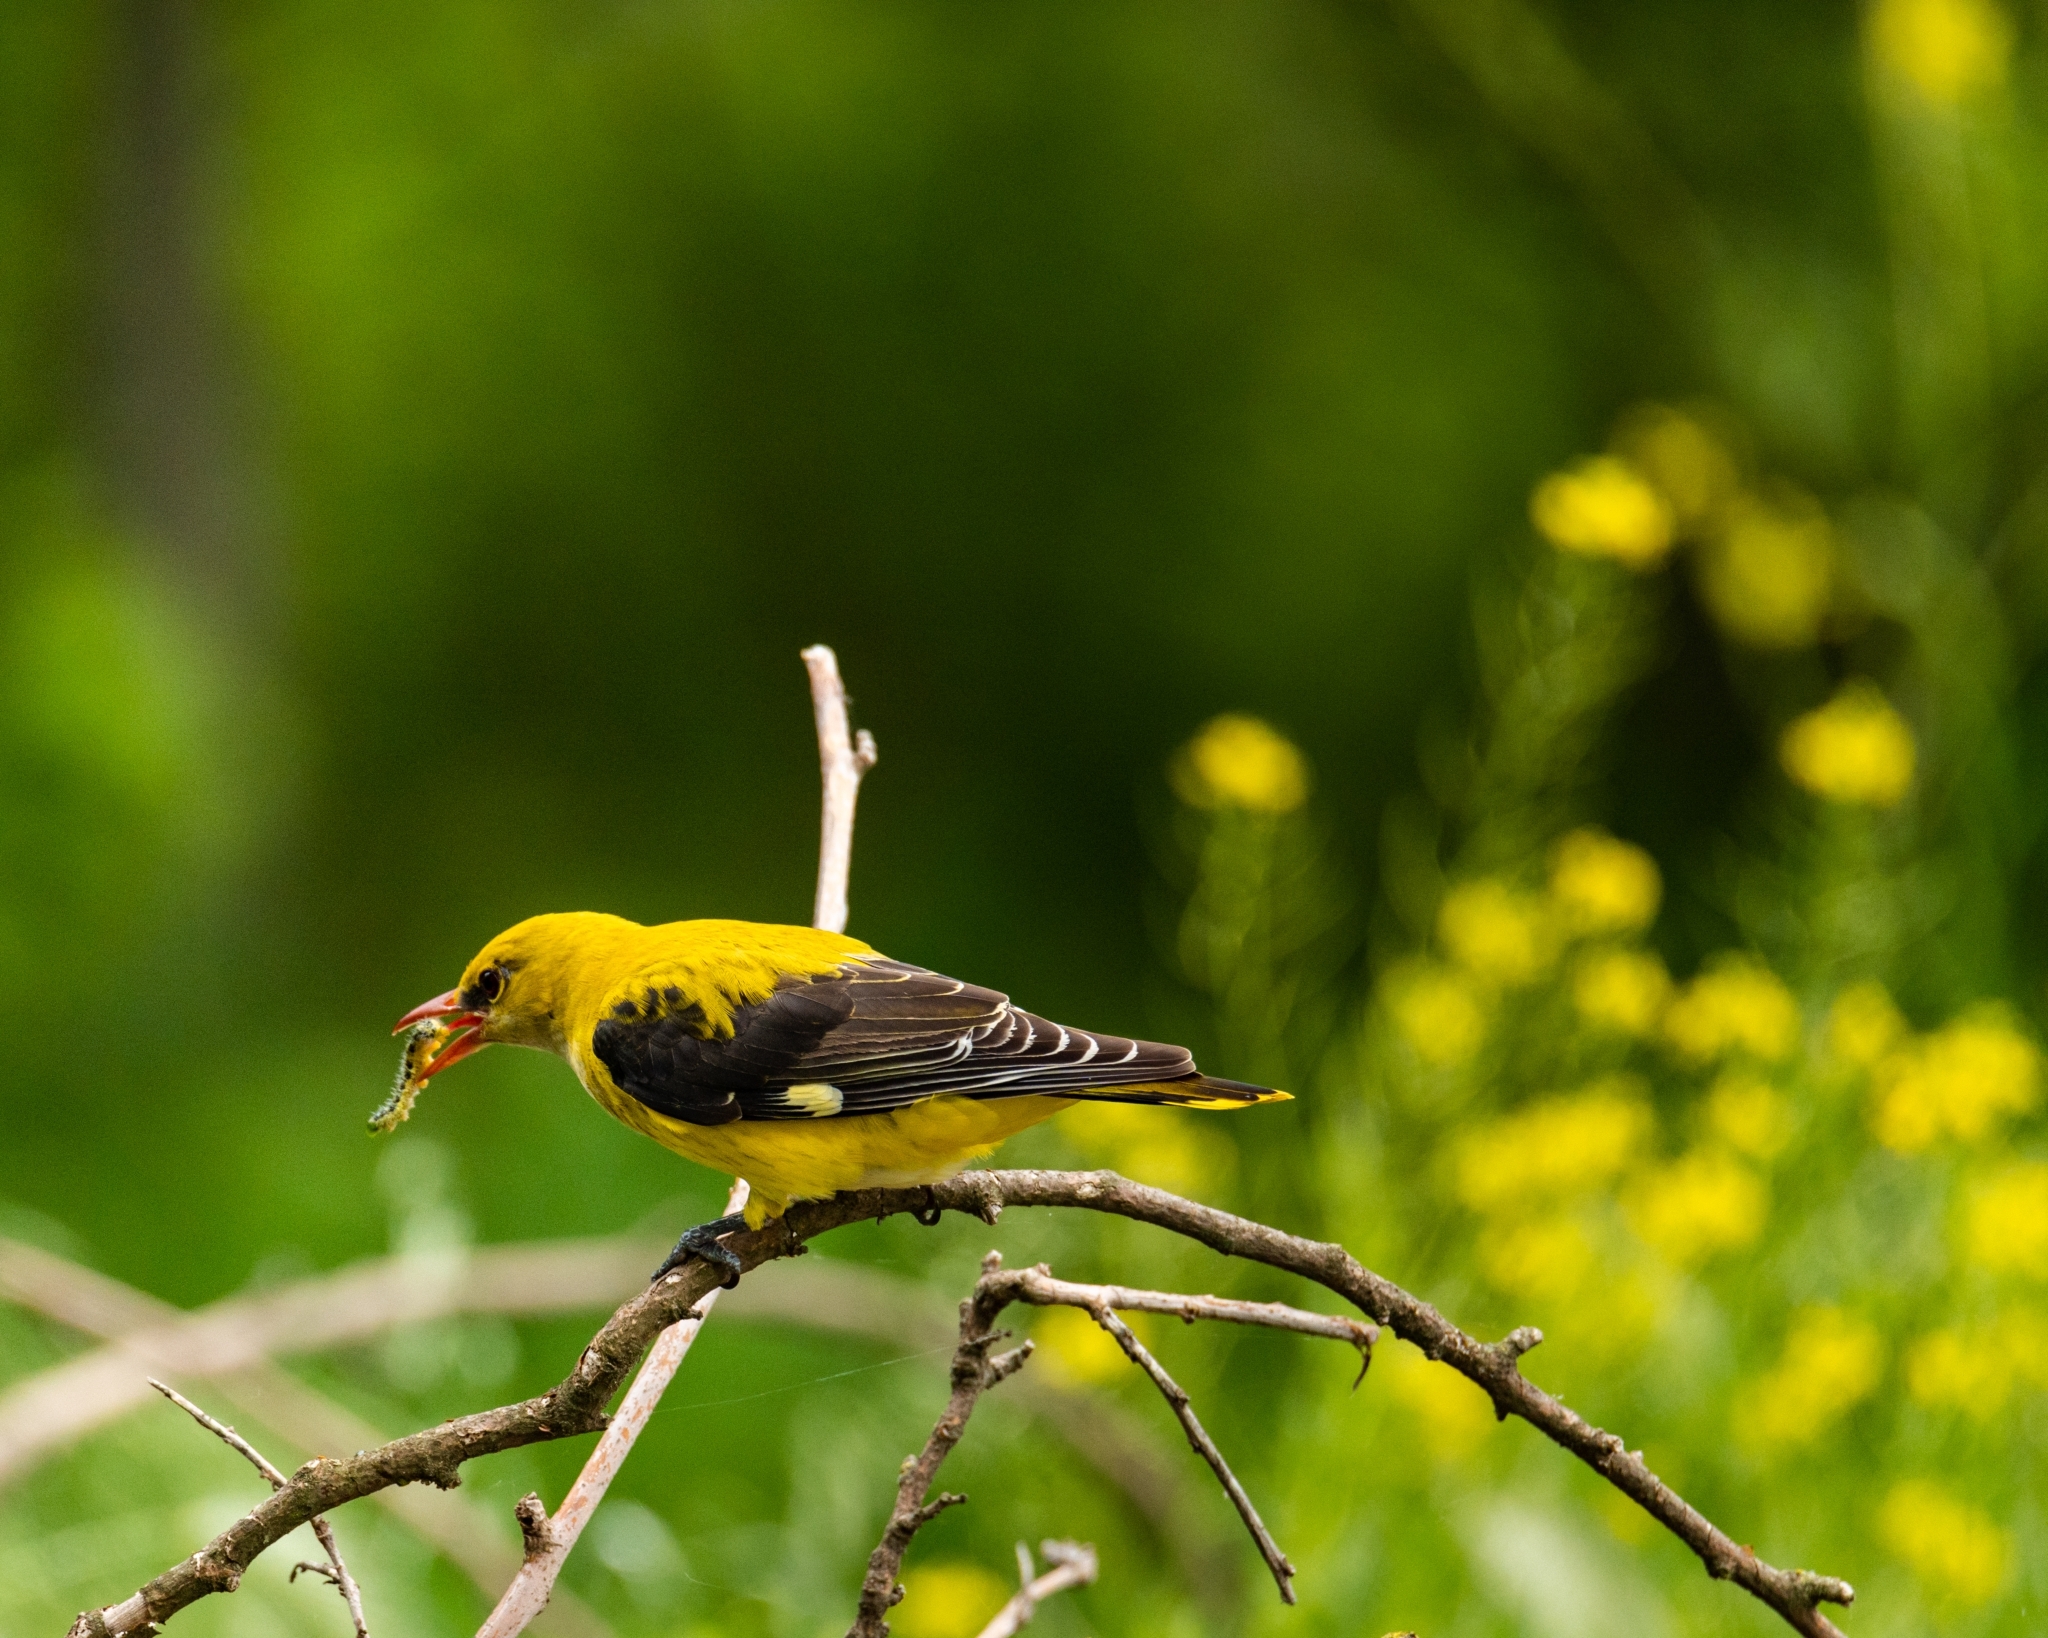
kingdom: Animalia
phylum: Chordata
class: Aves
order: Passeriformes
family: Oriolidae
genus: Oriolus
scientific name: Oriolus oriolus
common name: Eurasian golden oriole
